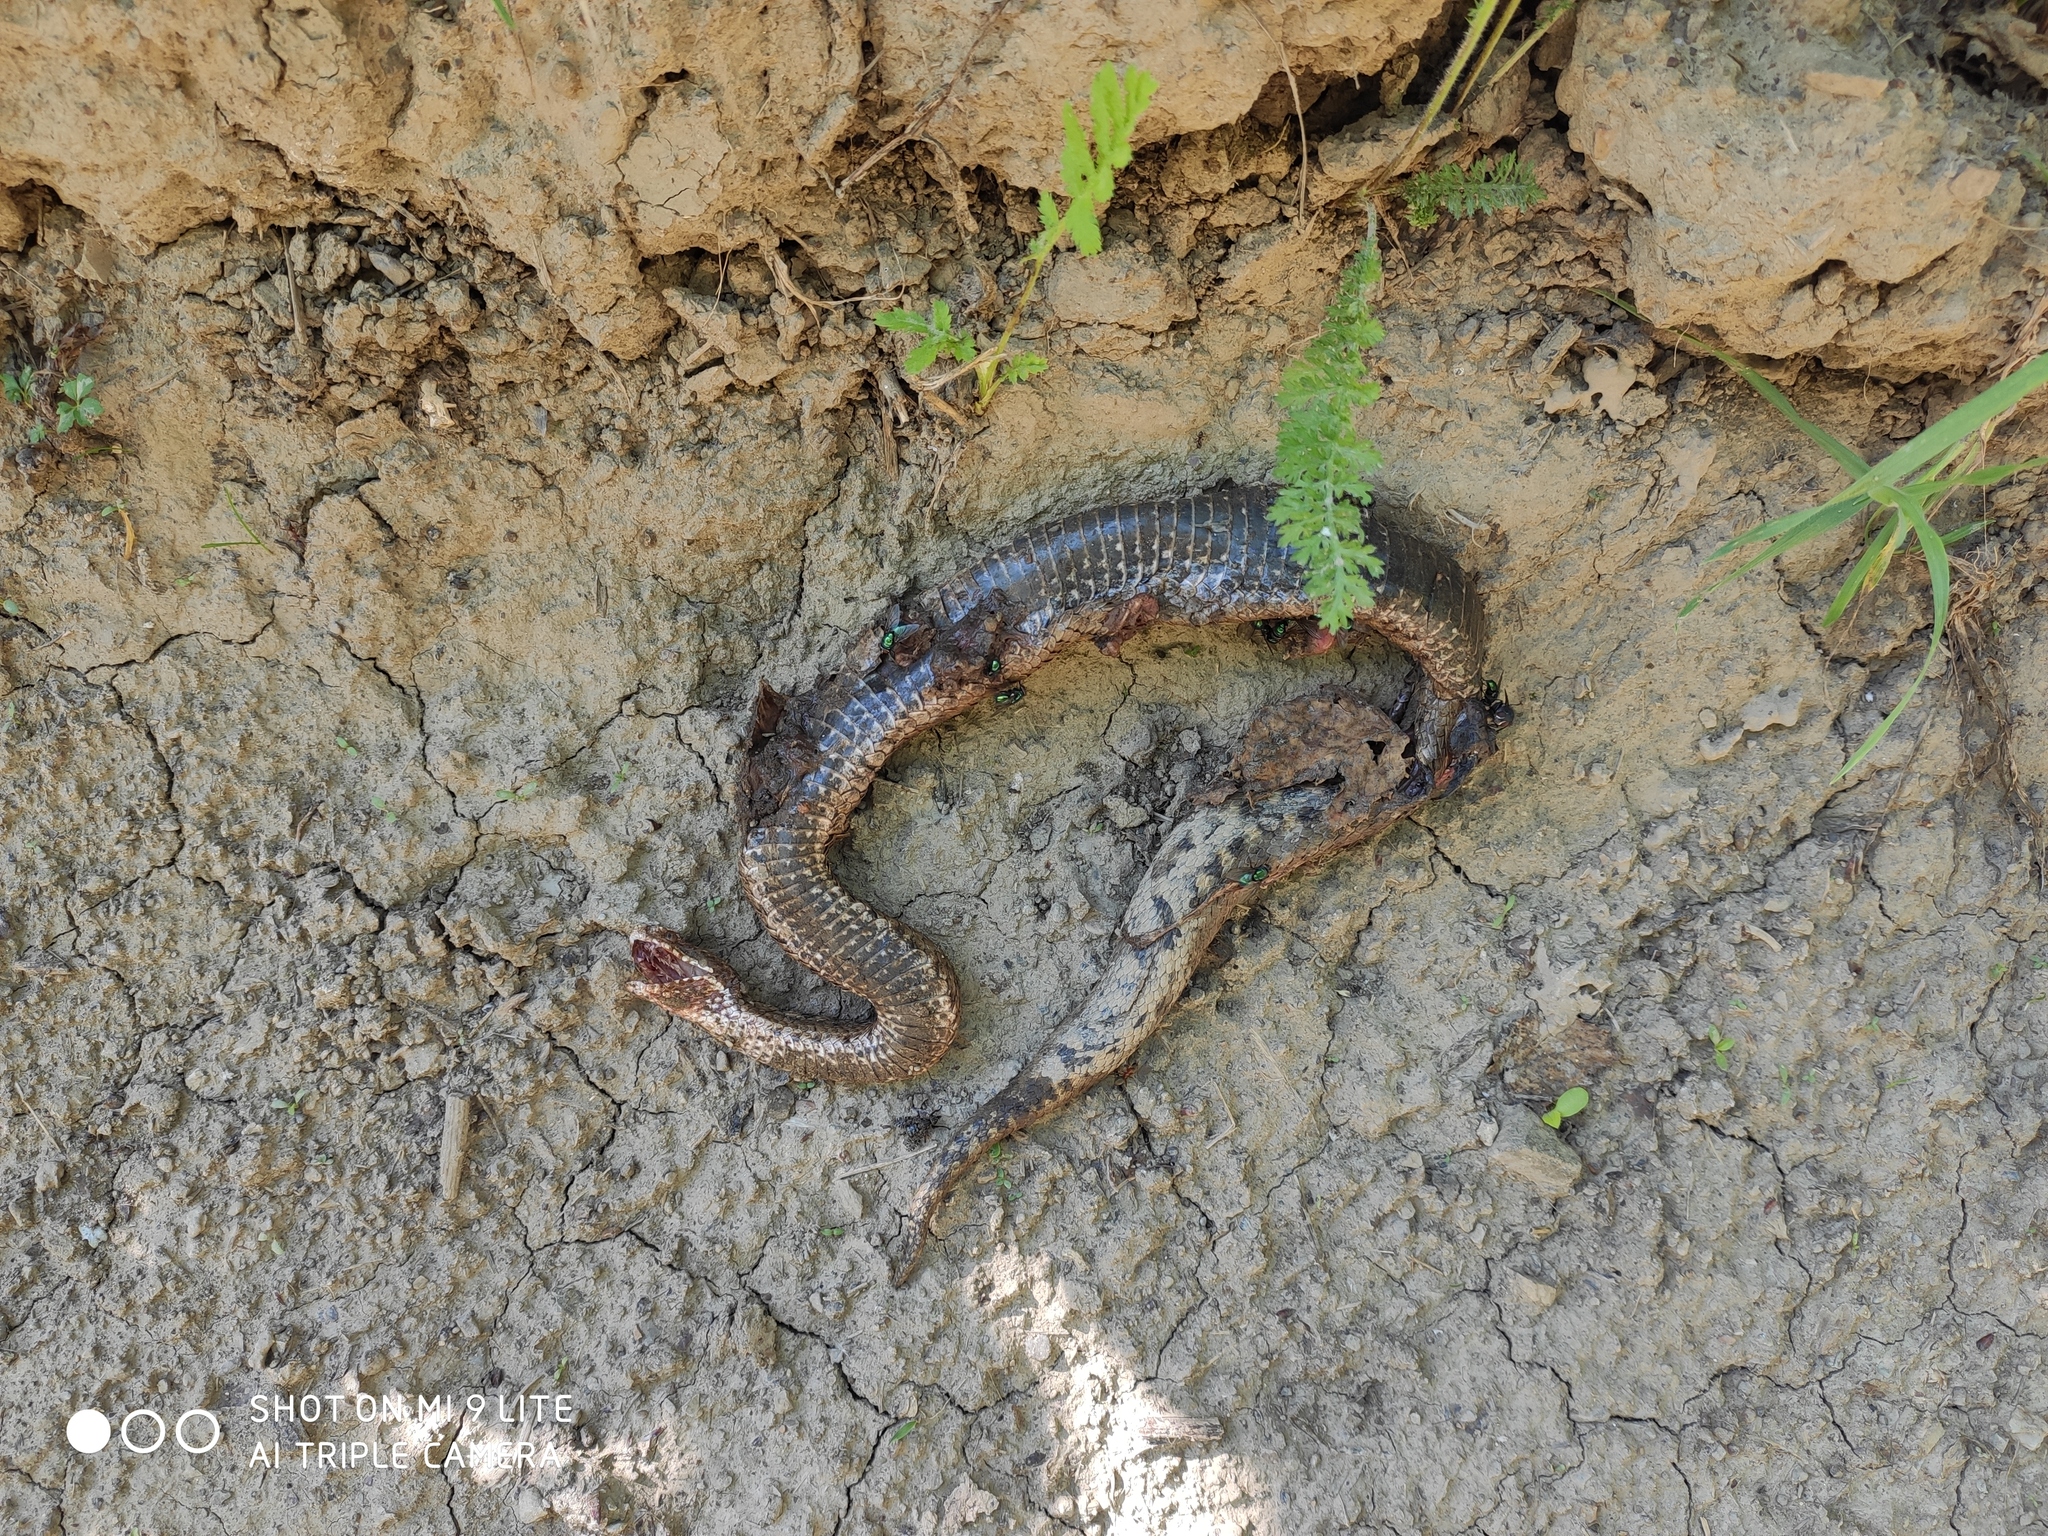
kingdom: Animalia
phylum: Chordata
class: Squamata
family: Viperidae
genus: Vipera
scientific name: Vipera renardi
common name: Eastern steppe viper
